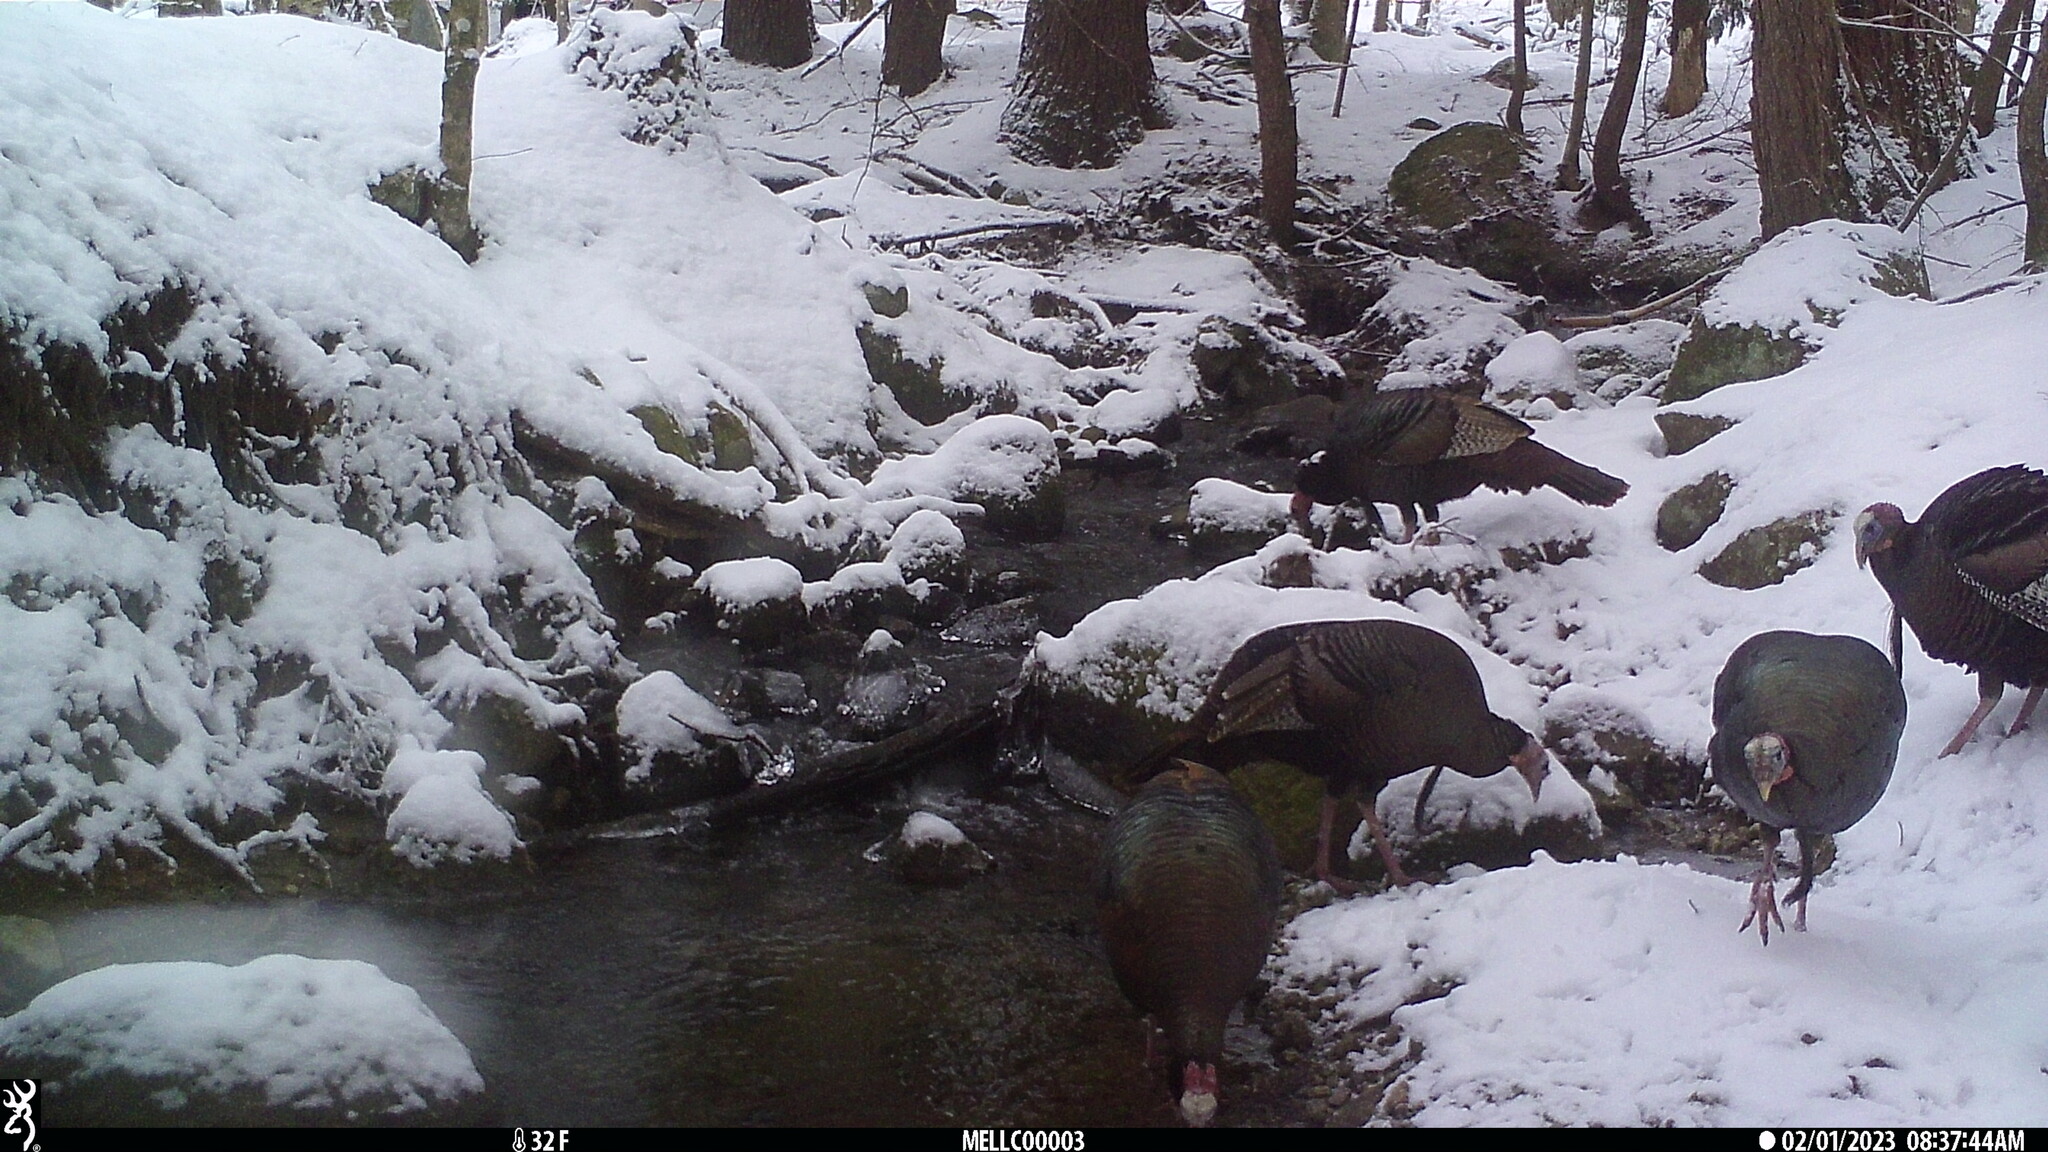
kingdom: Animalia
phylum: Chordata
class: Aves
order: Galliformes
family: Phasianidae
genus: Meleagris
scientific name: Meleagris gallopavo
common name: Wild turkey
